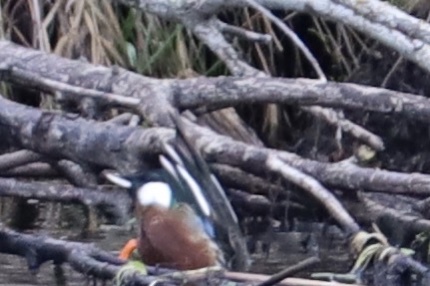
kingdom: Animalia
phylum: Chordata
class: Aves
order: Anseriformes
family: Anatidae
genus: Spatula
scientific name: Spatula clypeata
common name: Northern shoveler
